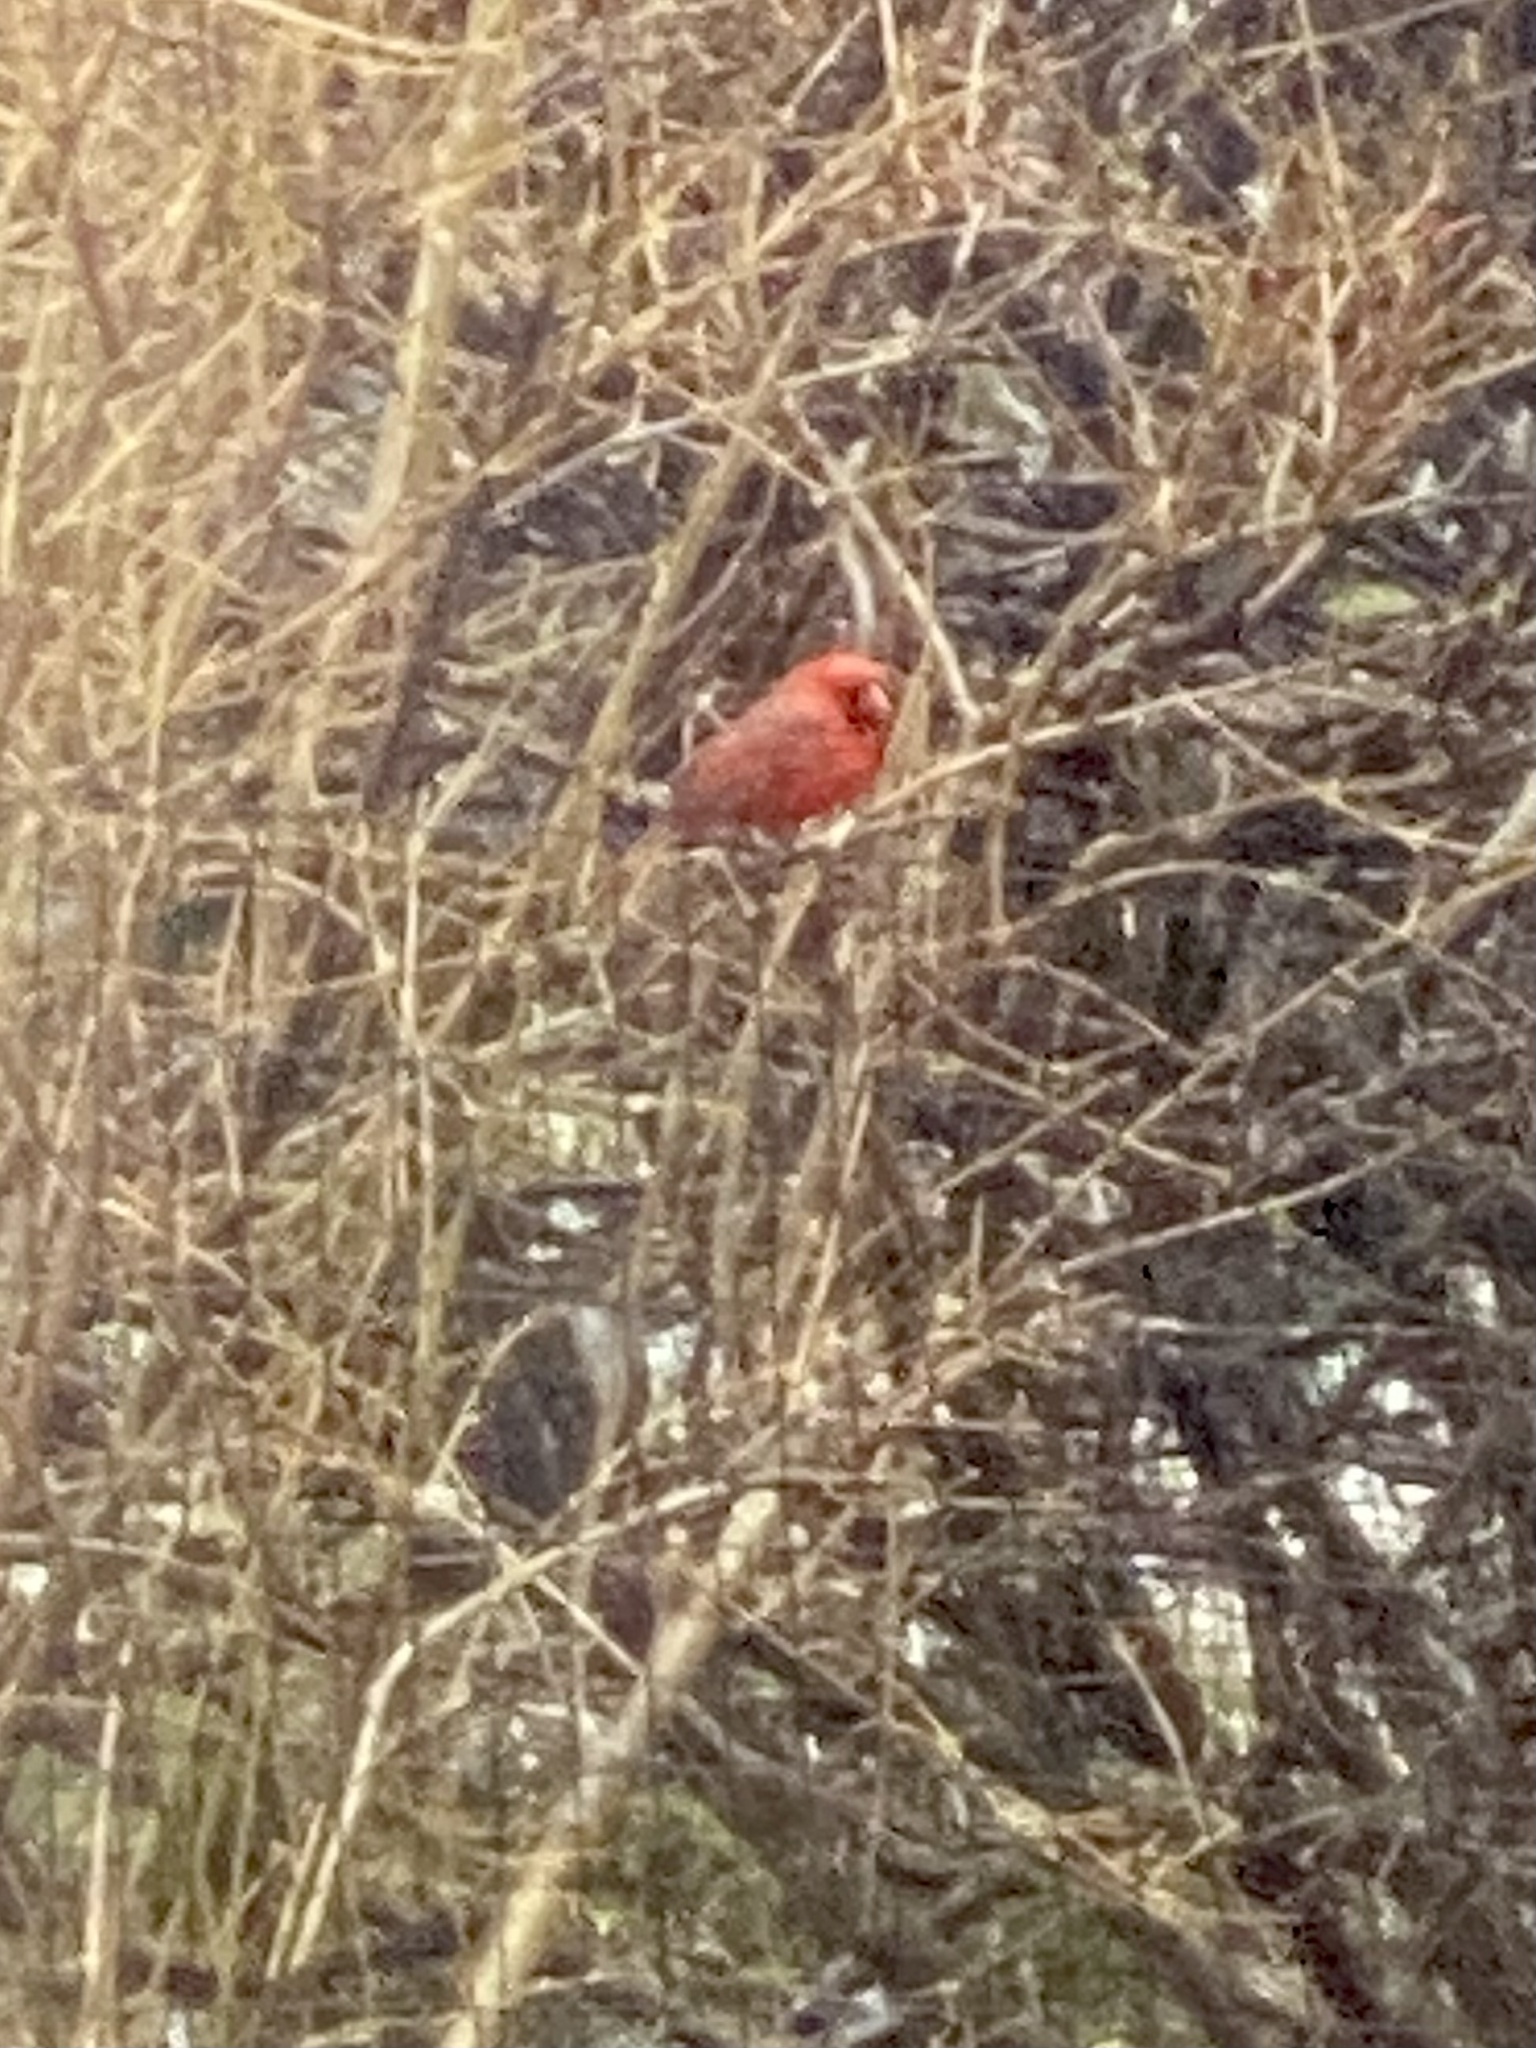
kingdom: Animalia
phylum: Chordata
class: Aves
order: Passeriformes
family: Cardinalidae
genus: Cardinalis
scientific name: Cardinalis cardinalis
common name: Northern cardinal
